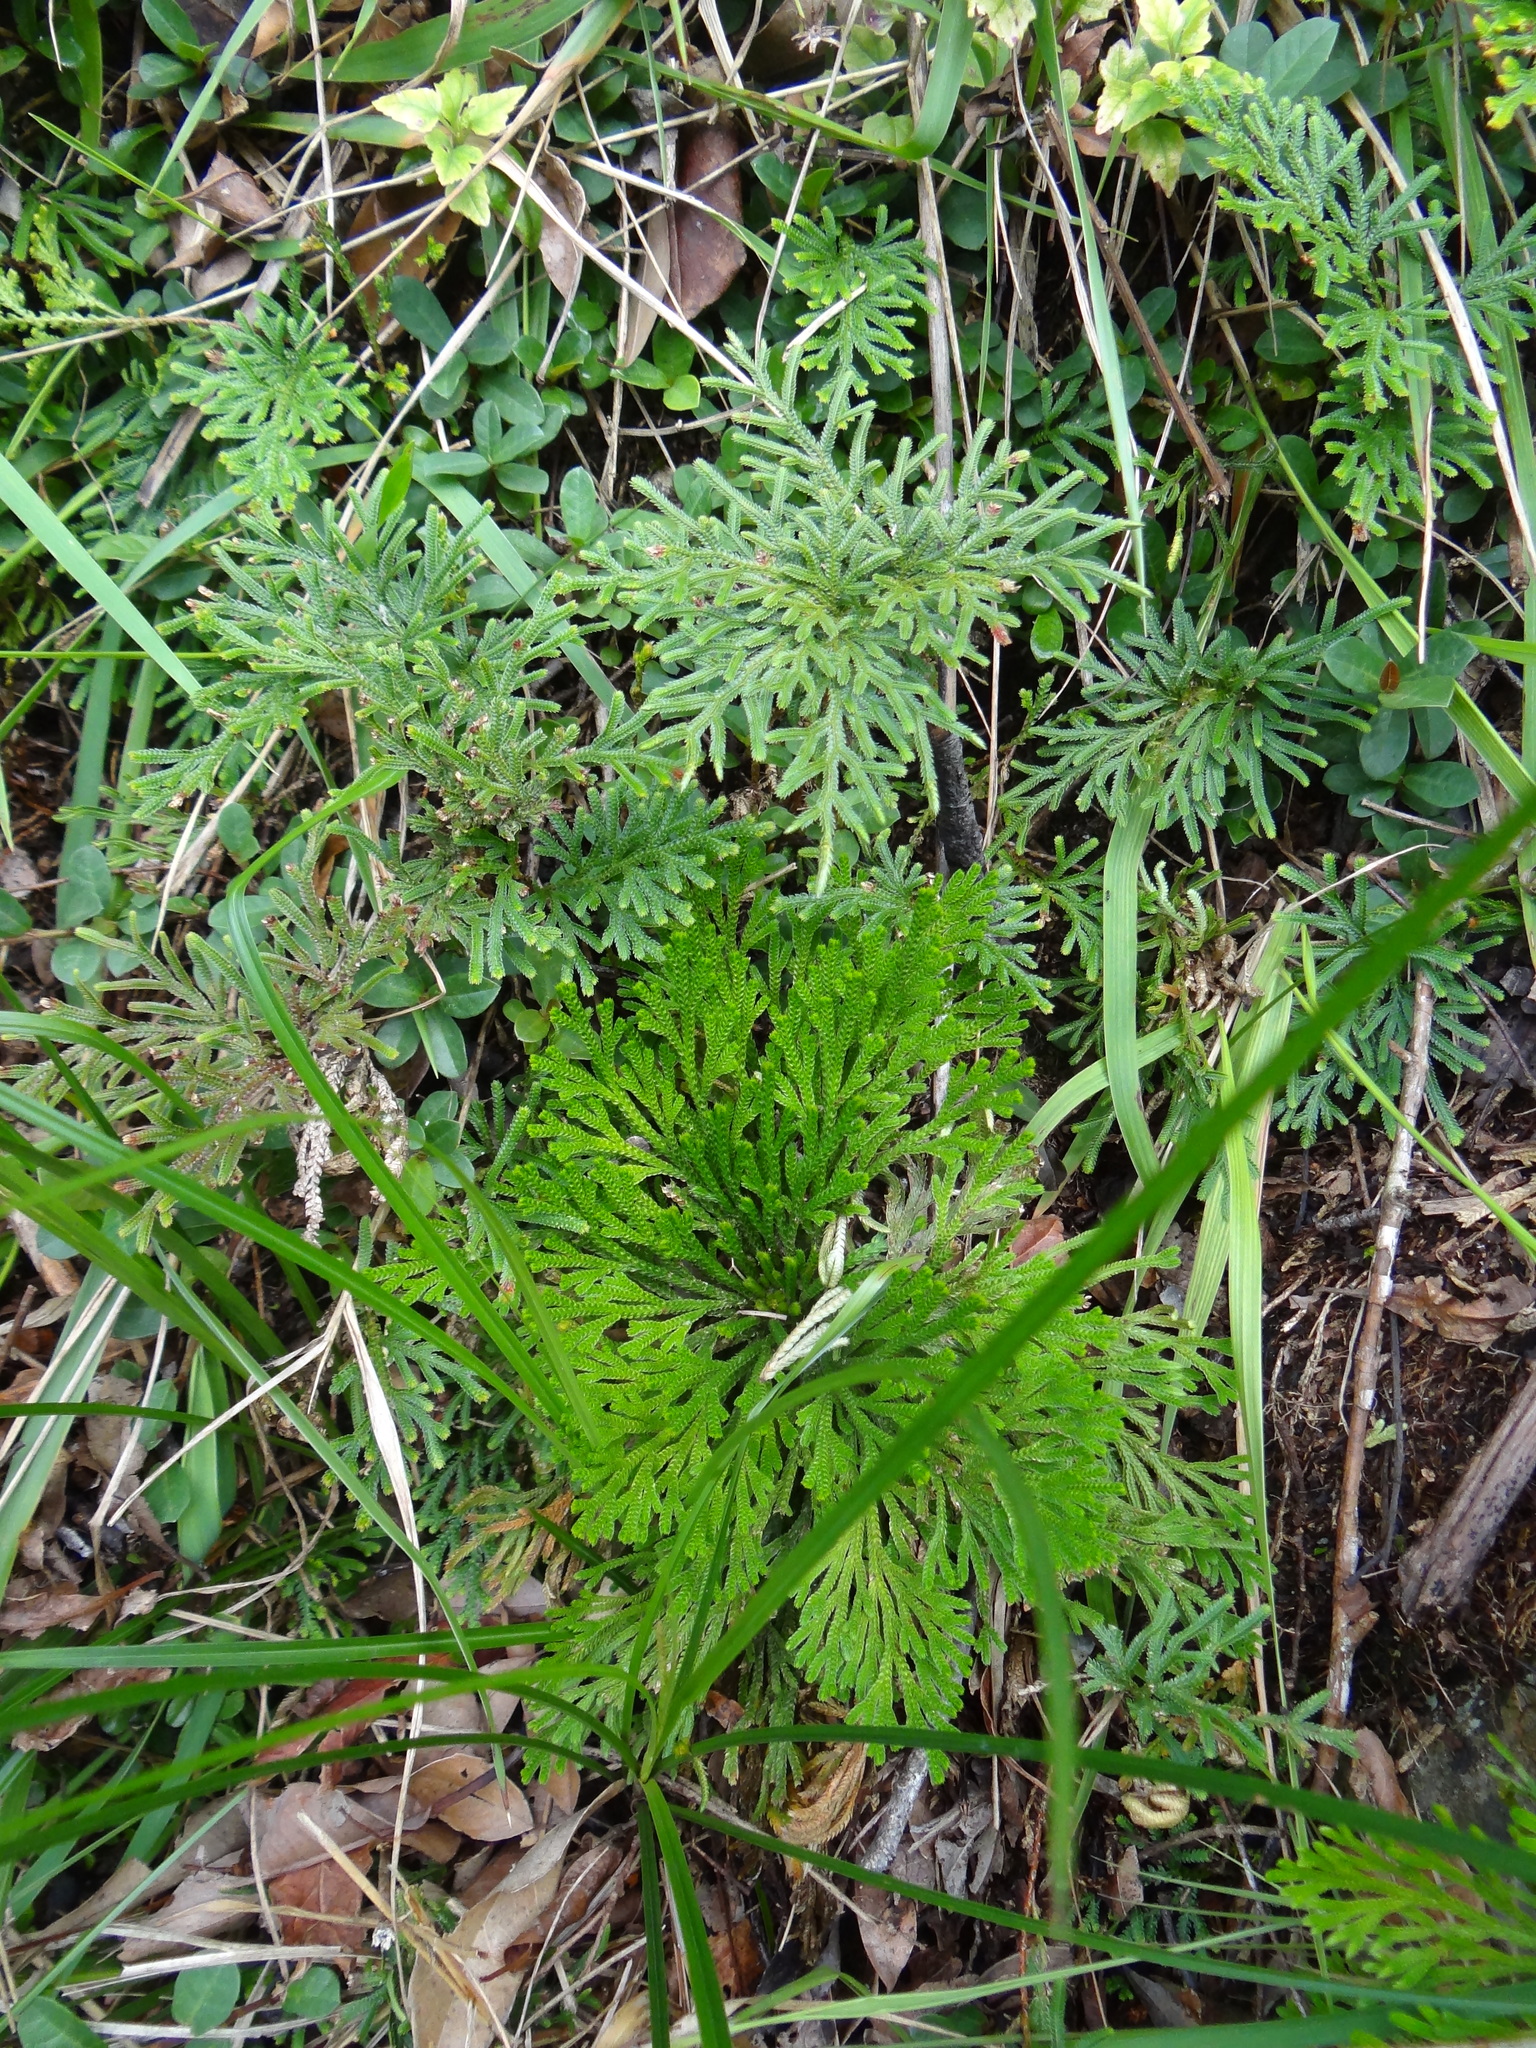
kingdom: Plantae
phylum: Tracheophyta
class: Lycopodiopsida
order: Selaginellales
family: Selaginellaceae
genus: Selaginella
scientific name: Selaginella stauntoniana
